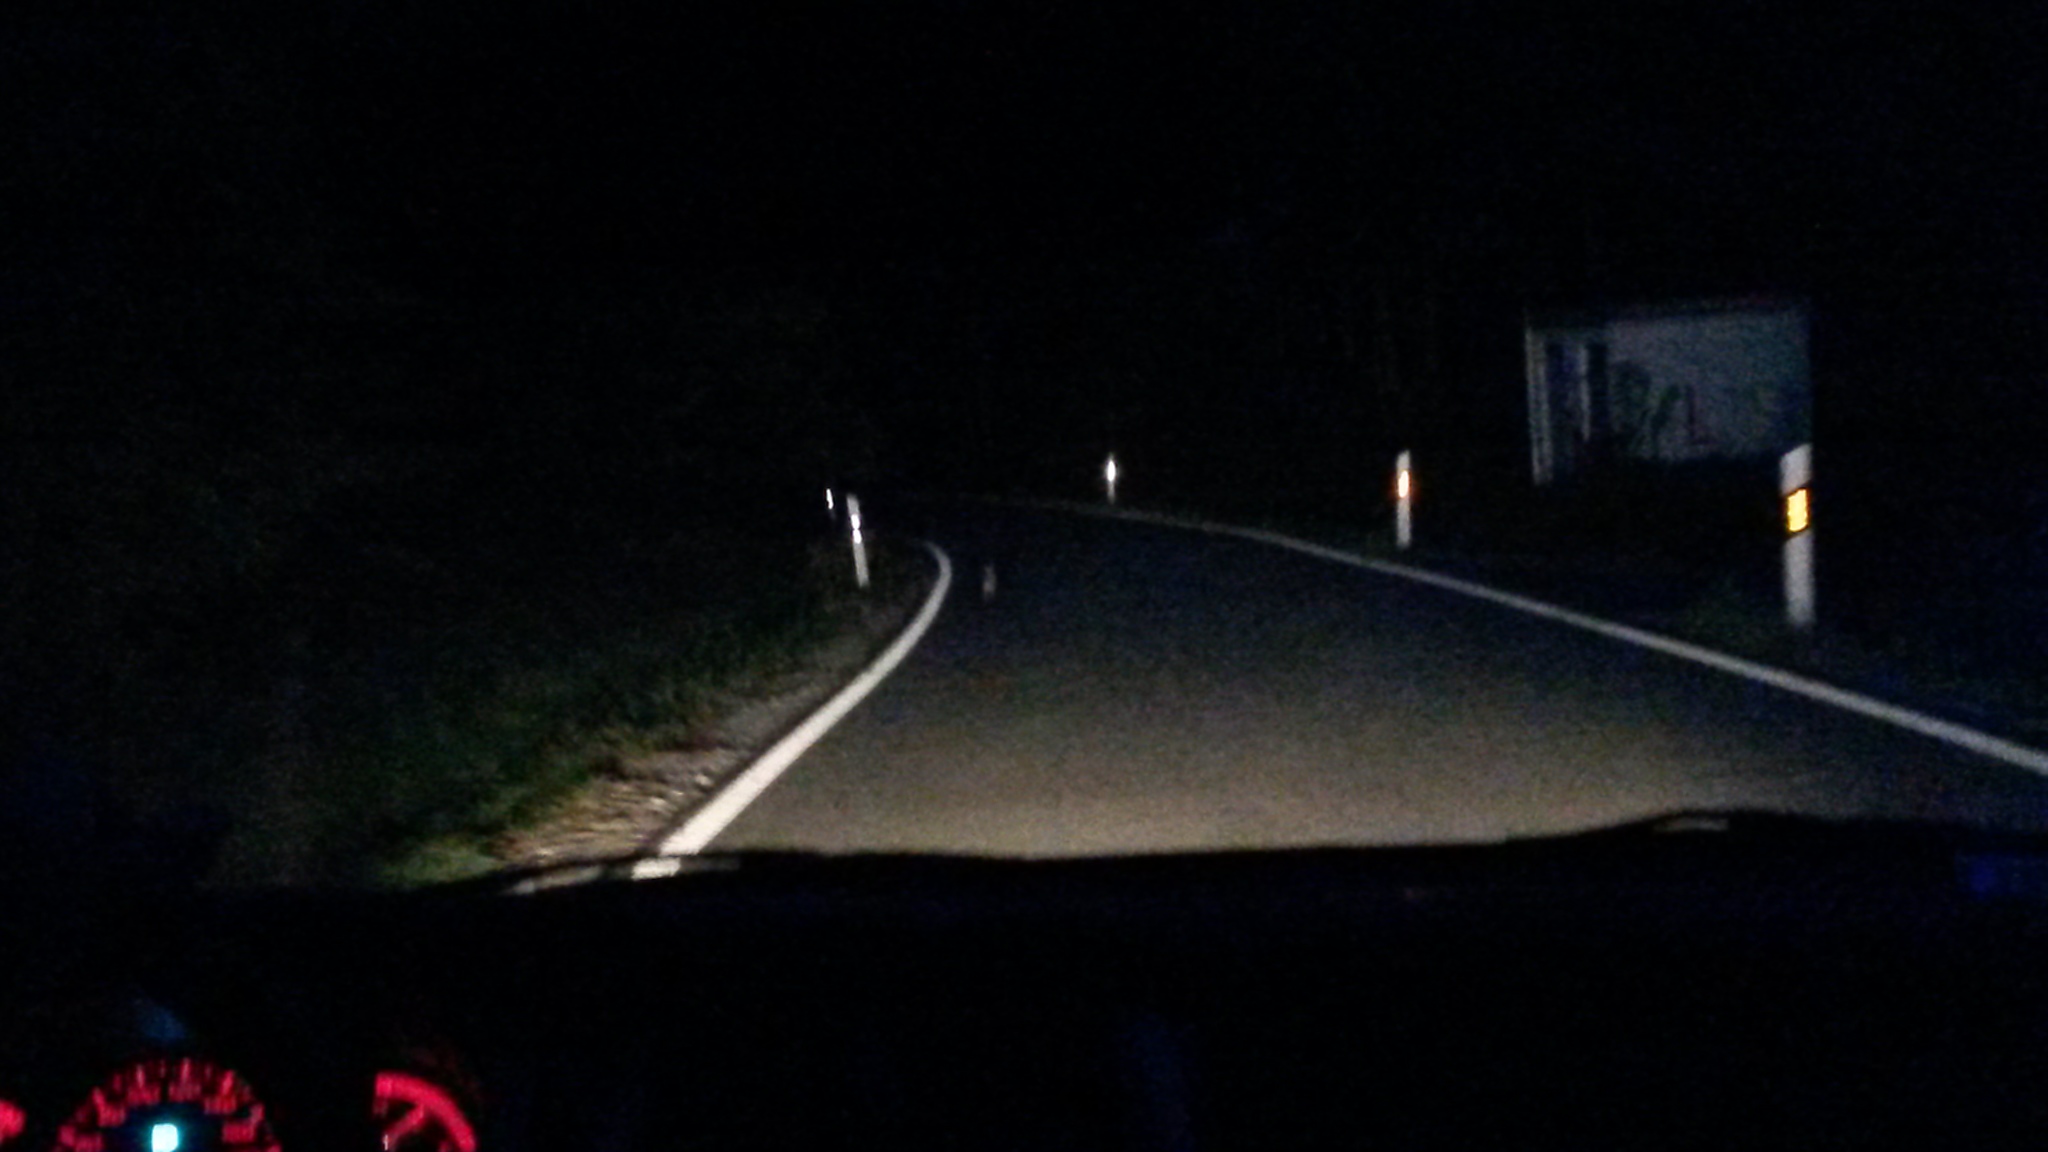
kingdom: Animalia
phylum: Chordata
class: Mammalia
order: Lagomorpha
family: Leporidae
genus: Oryctolagus
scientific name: Oryctolagus cuniculus
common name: European rabbit
